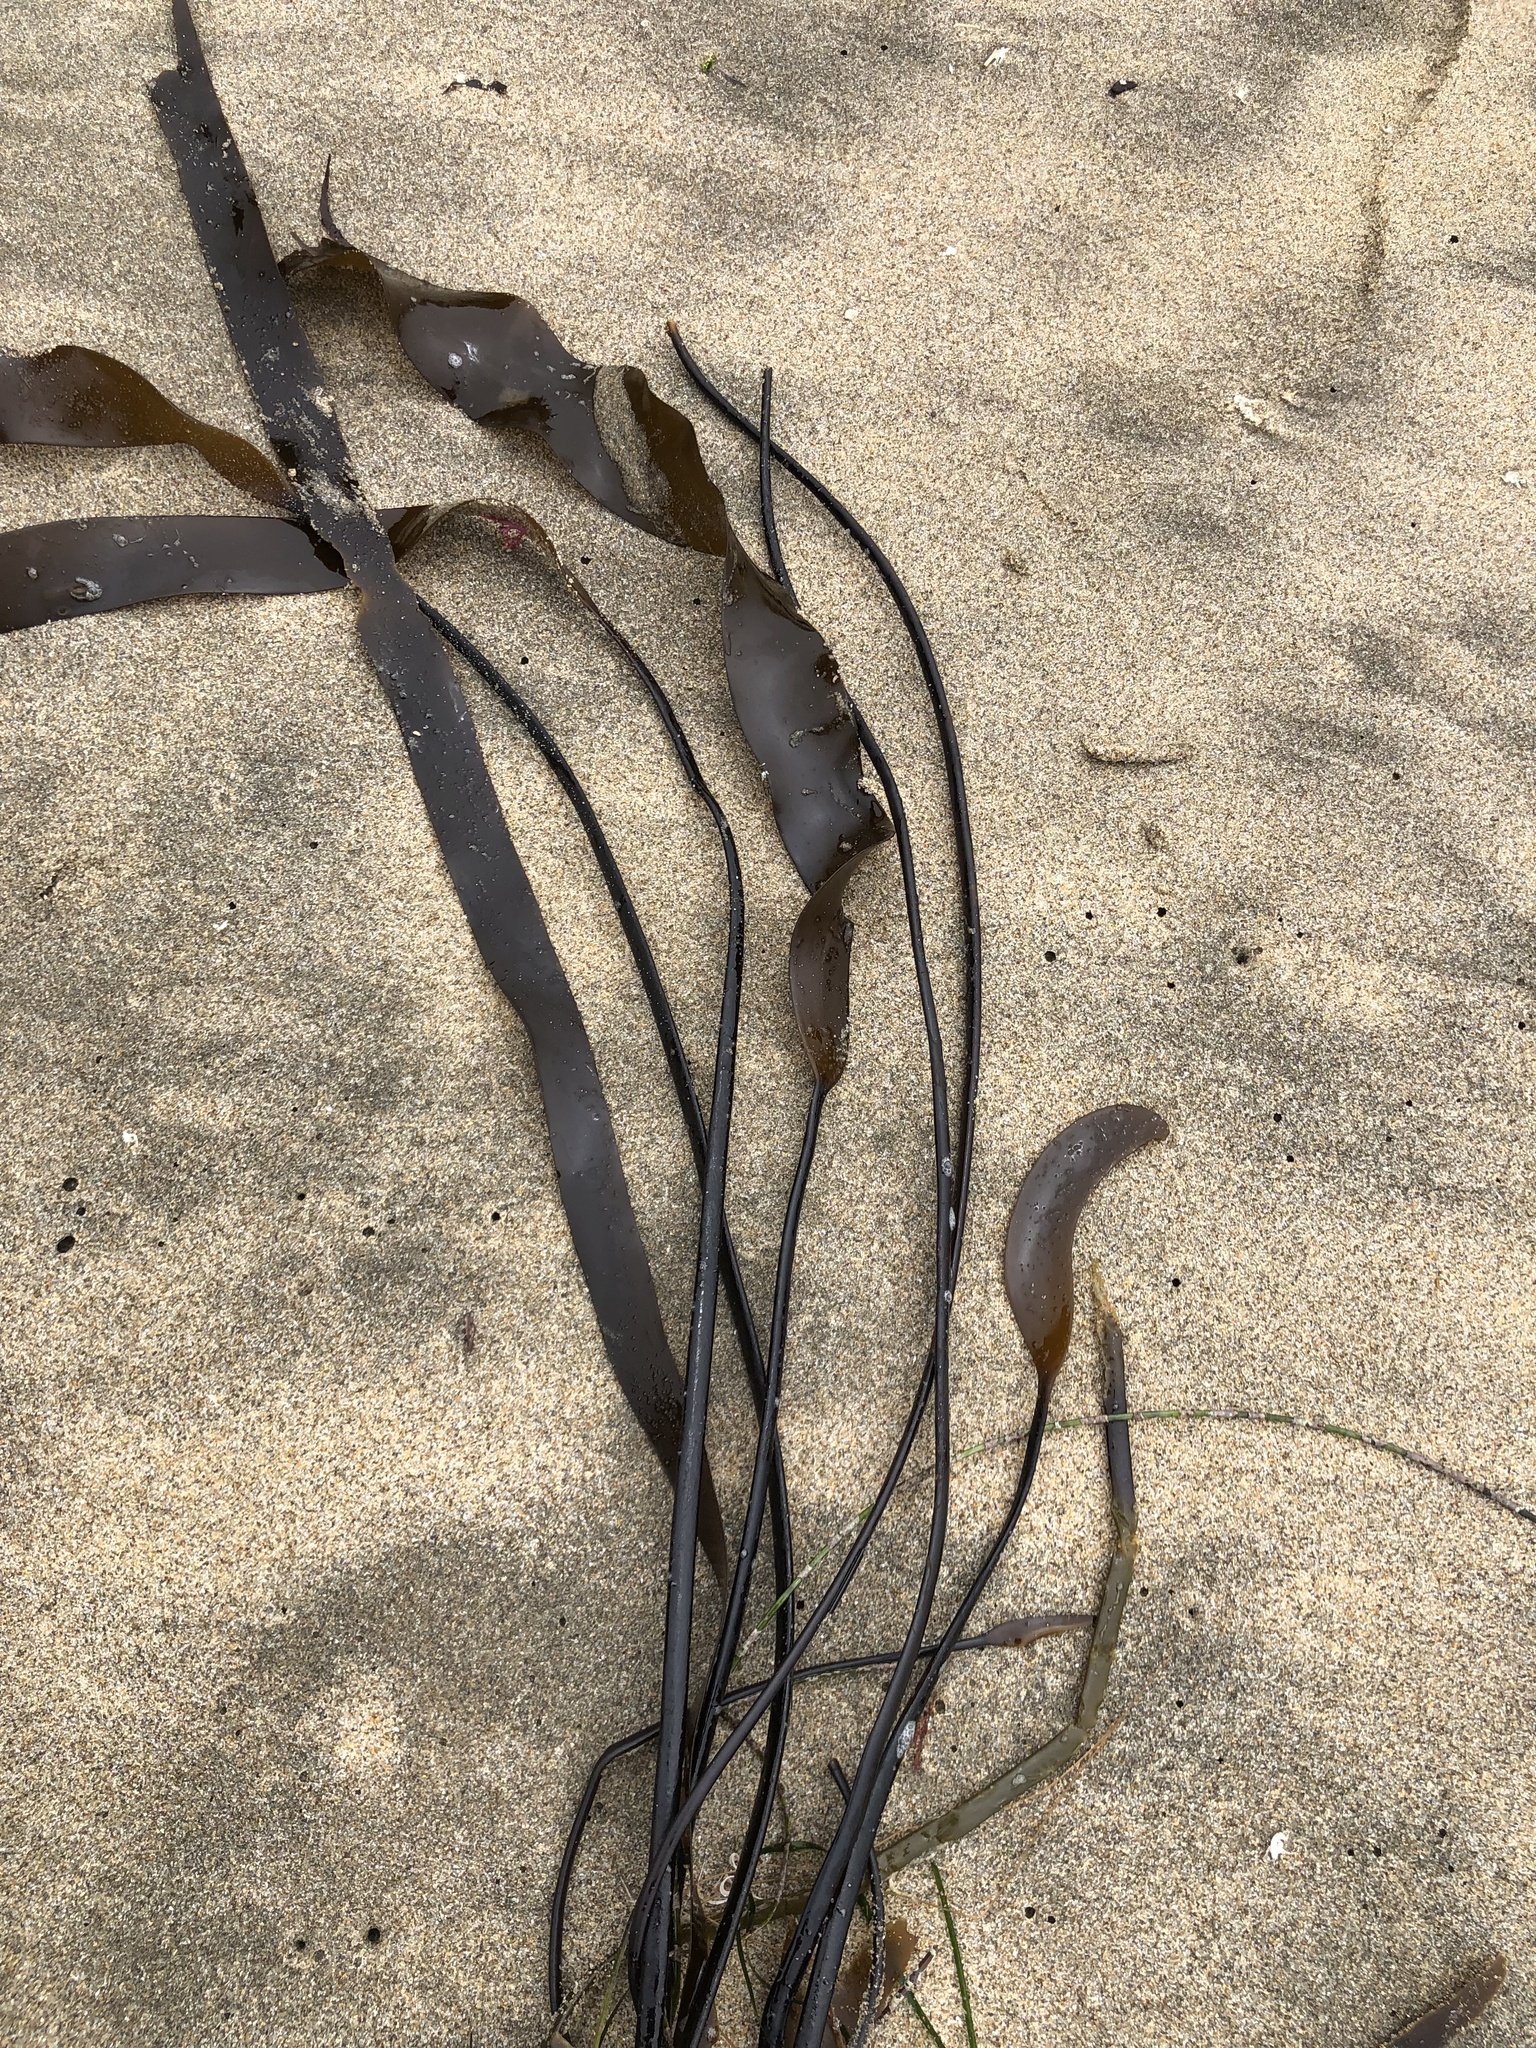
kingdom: Chromista
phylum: Ochrophyta
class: Phaeophyceae
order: Laminariales
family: Laminariaceae
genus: Laminaria
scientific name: Laminaria sinclairii
